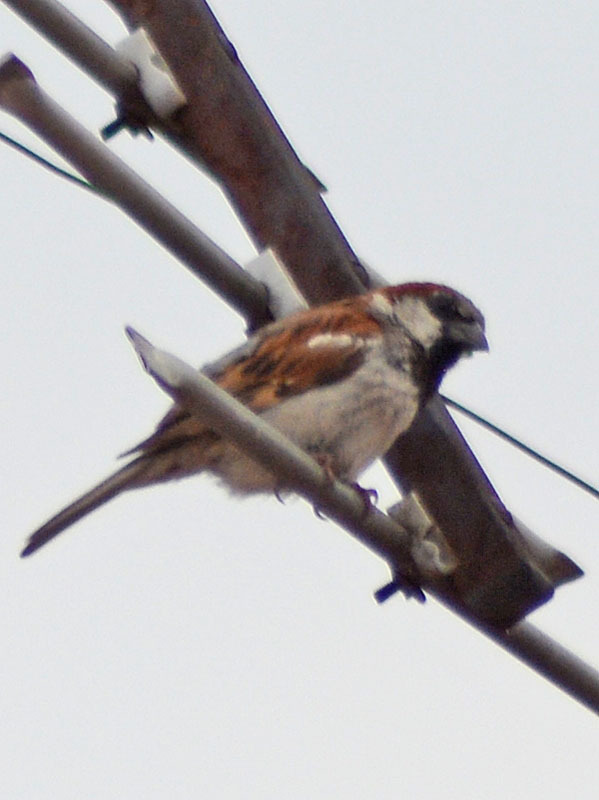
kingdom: Animalia
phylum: Chordata
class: Aves
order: Passeriformes
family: Passeridae
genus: Passer
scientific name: Passer domesticus
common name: House sparrow
